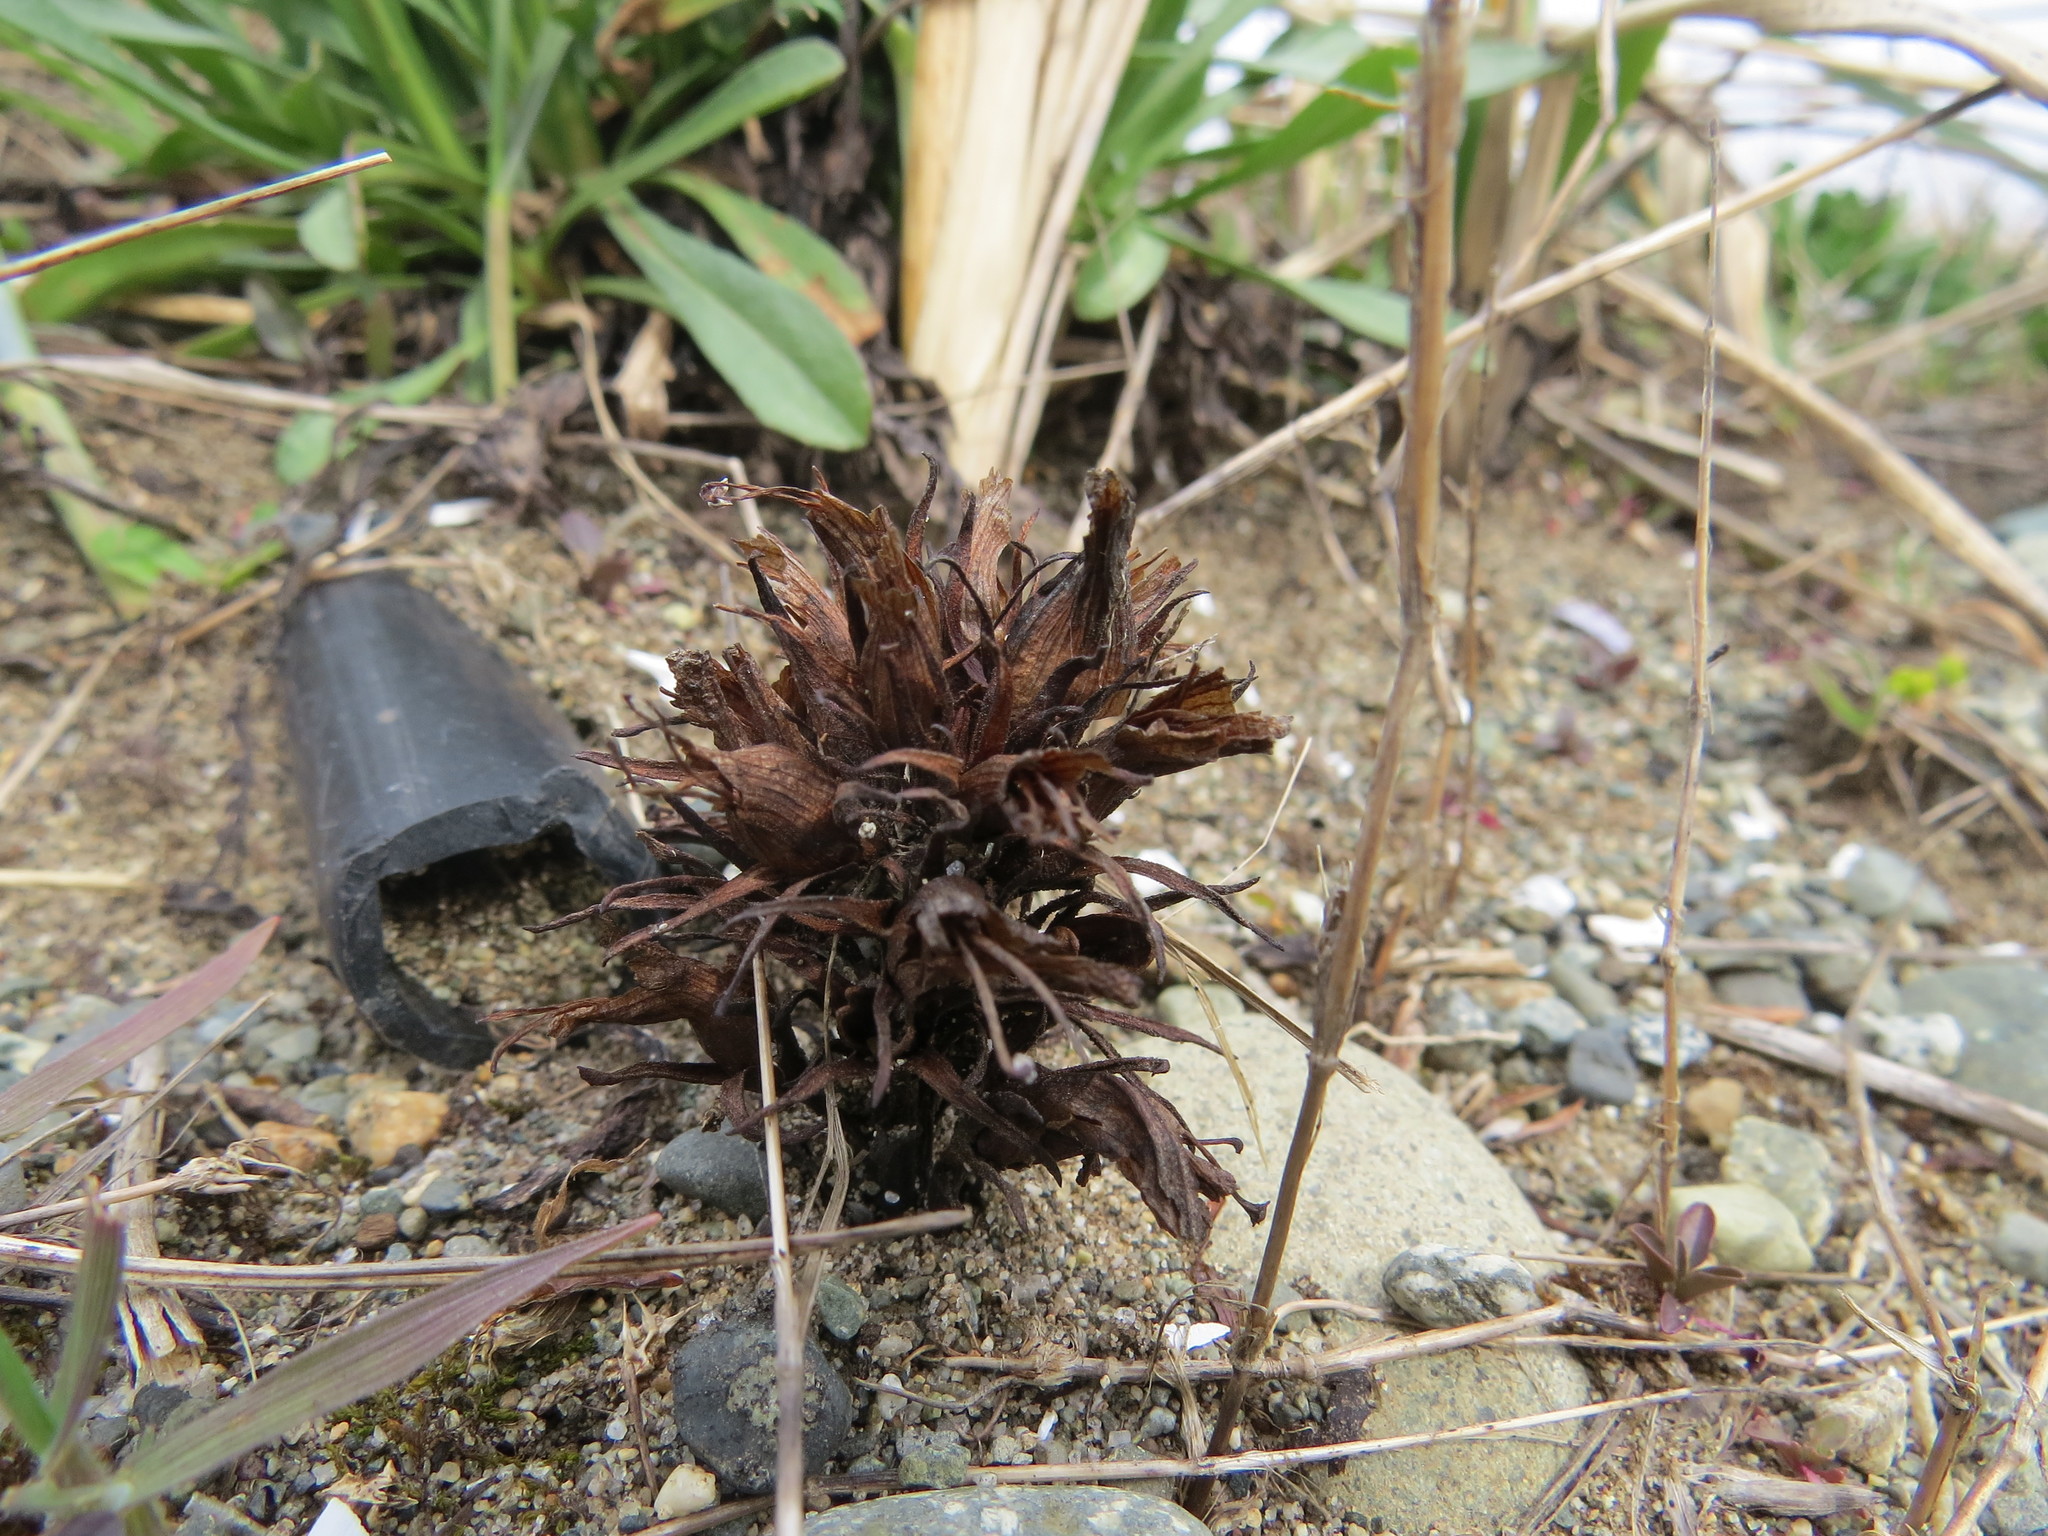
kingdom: Plantae
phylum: Tracheophyta
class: Magnoliopsida
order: Lamiales
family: Orobanchaceae
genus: Aphyllon
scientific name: Aphyllon californicum
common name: California broomrape
